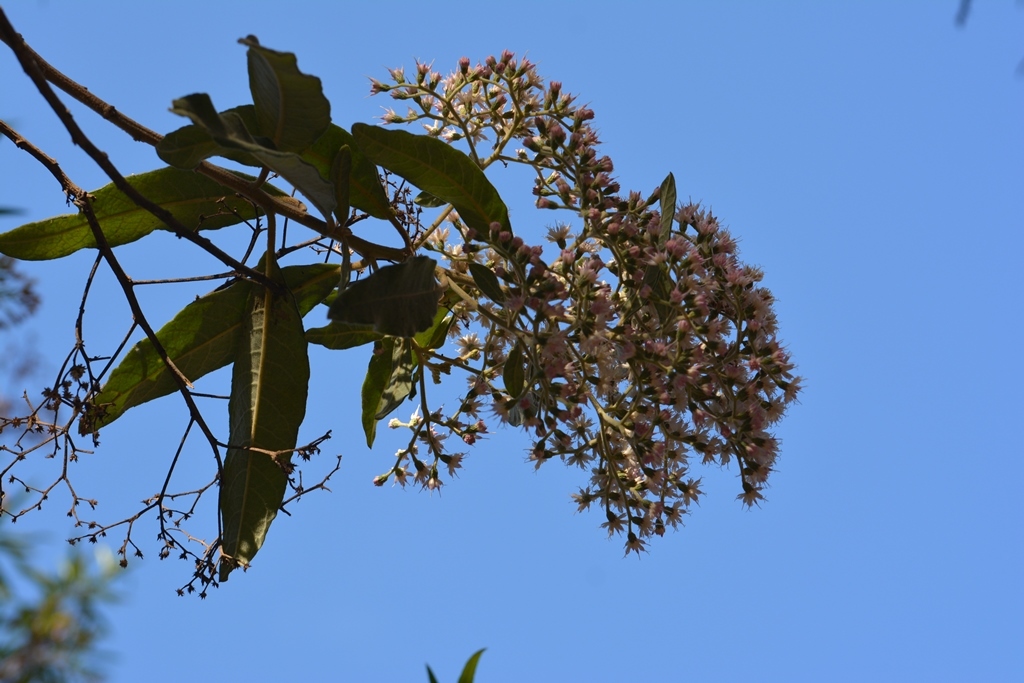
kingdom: Plantae
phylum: Tracheophyta
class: Magnoliopsida
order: Asterales
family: Asteraceae
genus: Vernonanthura
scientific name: Vernonanthura patens
